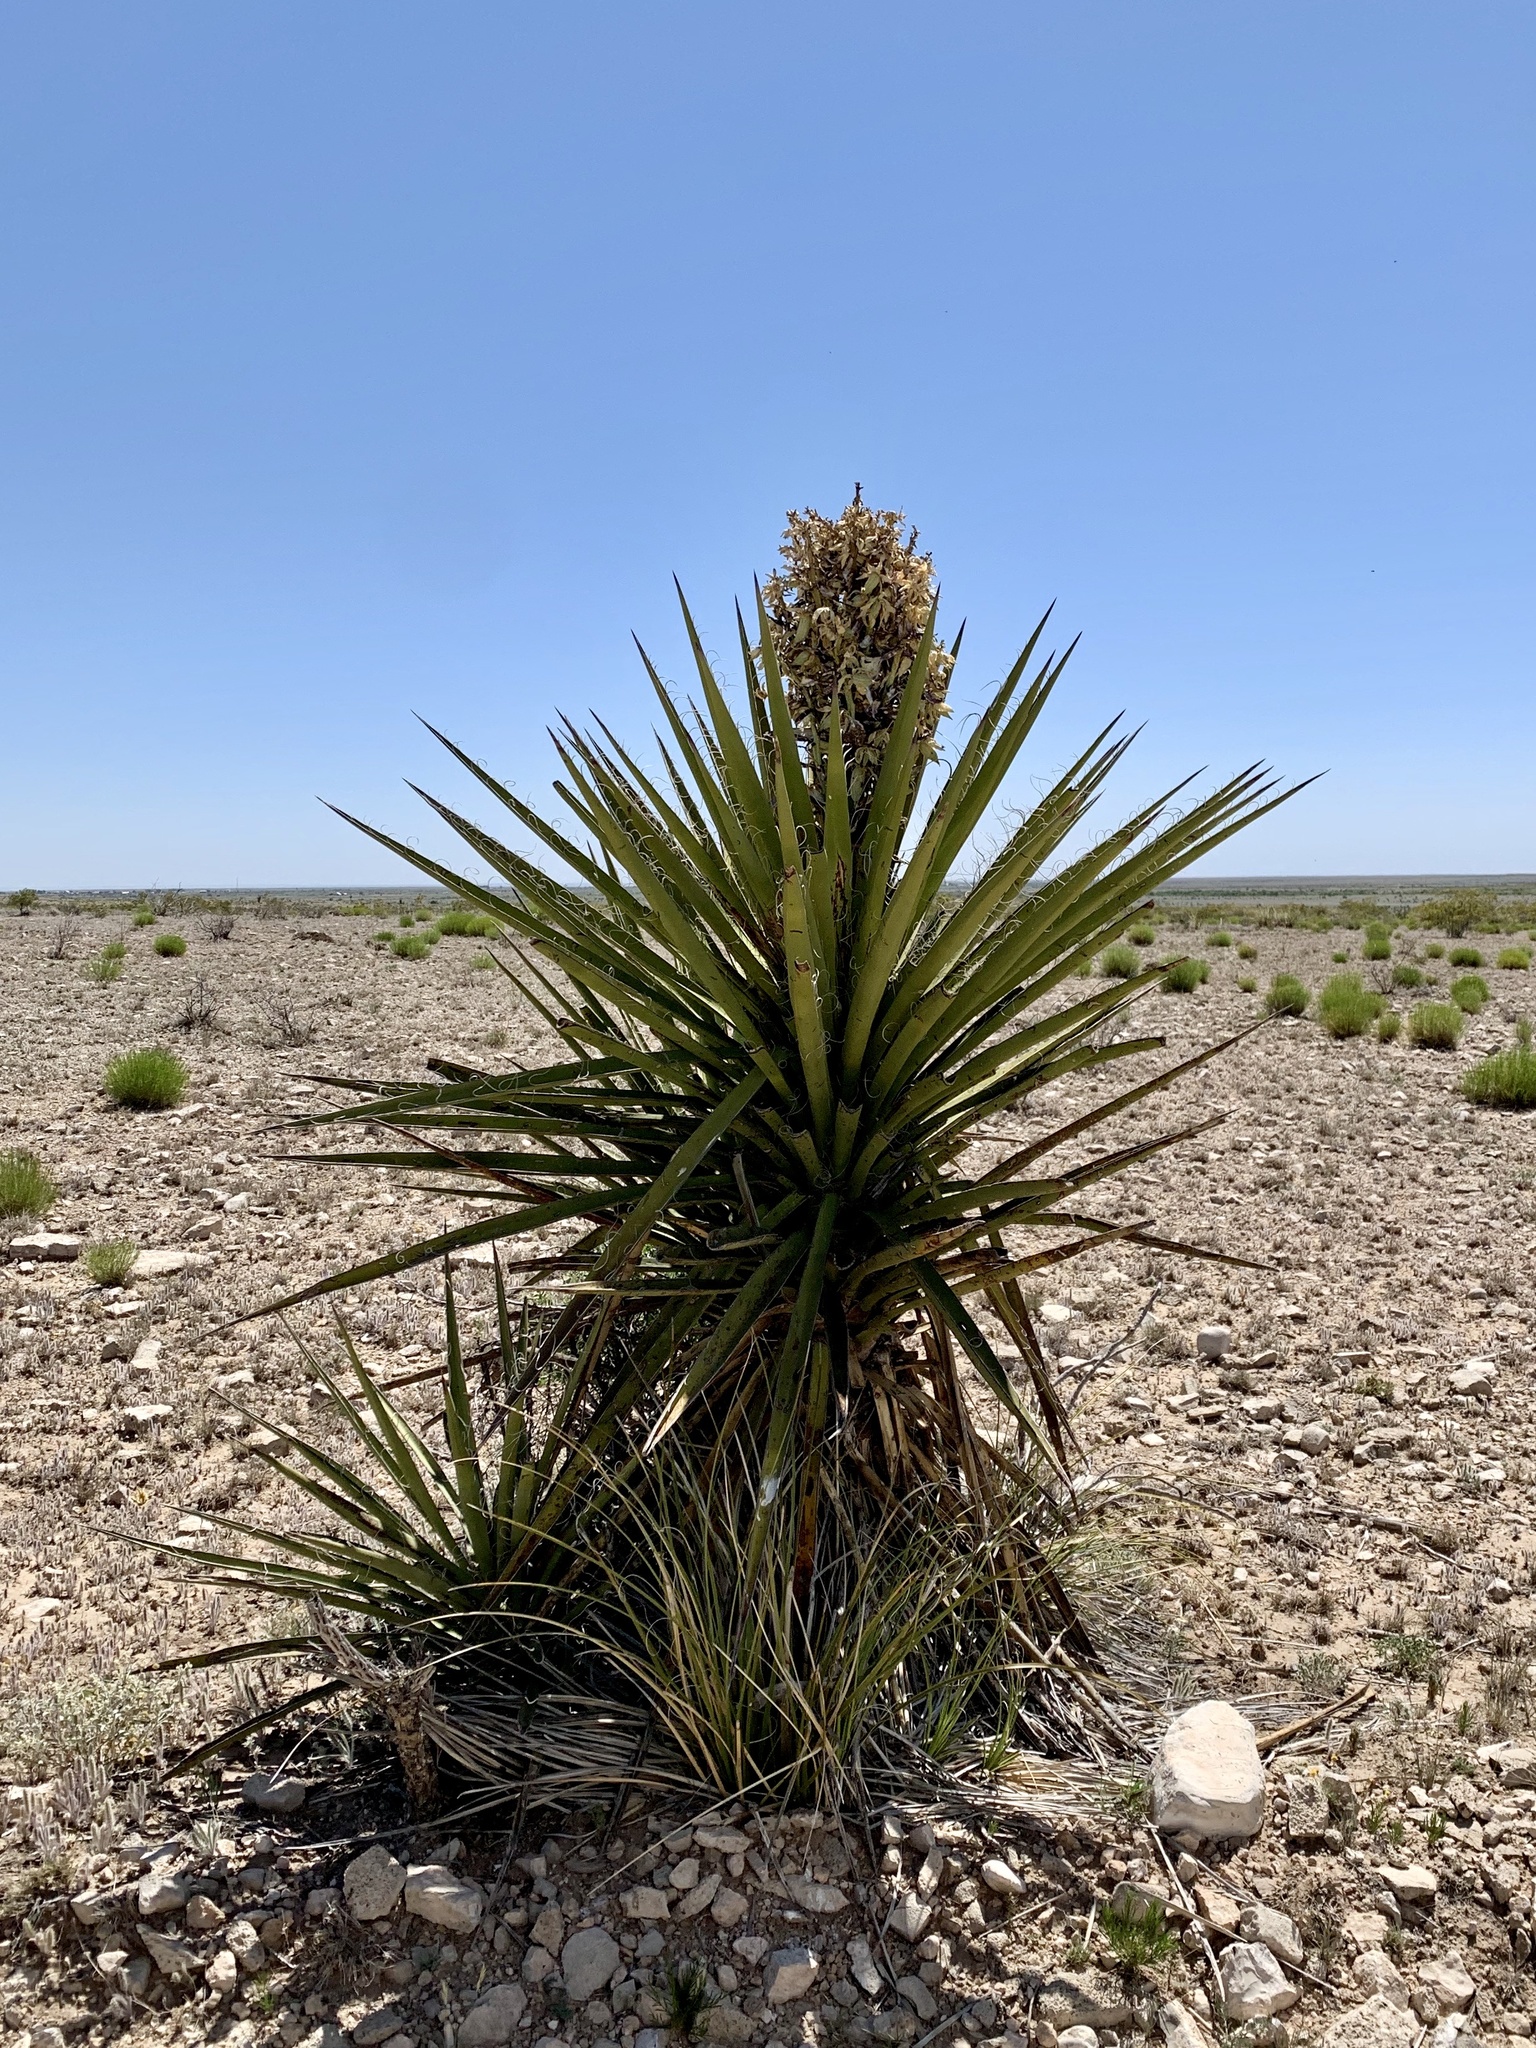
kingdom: Plantae
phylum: Tracheophyta
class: Liliopsida
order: Asparagales
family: Asparagaceae
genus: Yucca
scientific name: Yucca treculiana
